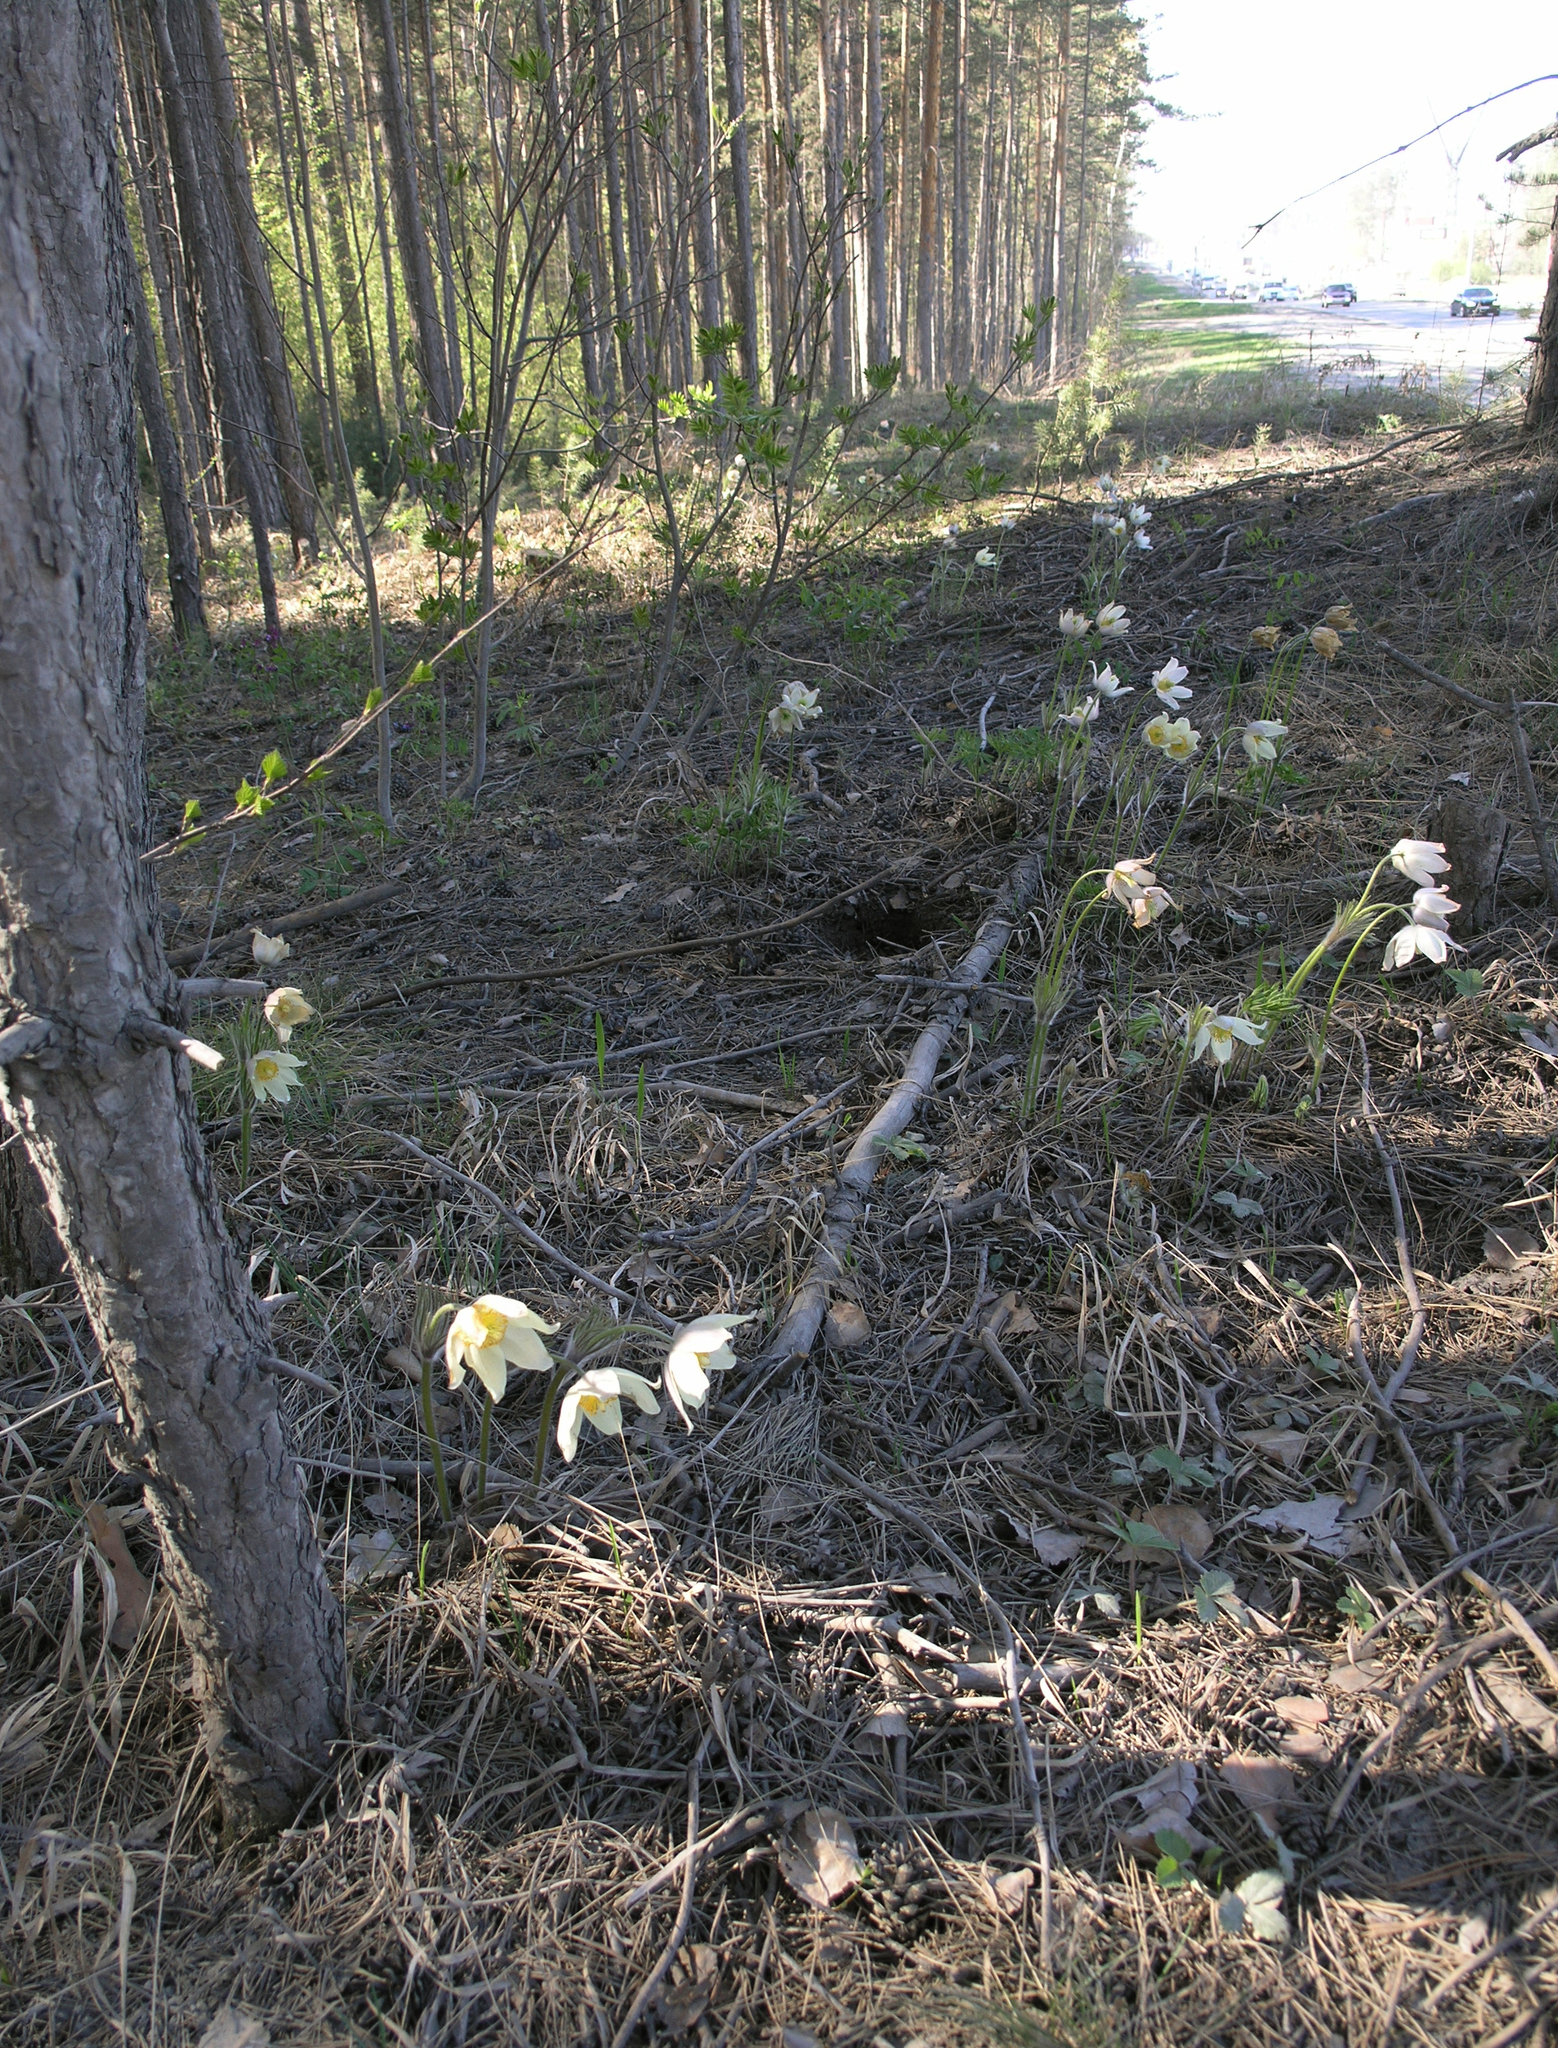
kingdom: Plantae
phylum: Tracheophyta
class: Magnoliopsida
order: Ranunculales
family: Ranunculaceae
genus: Pulsatilla
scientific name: Pulsatilla patens
